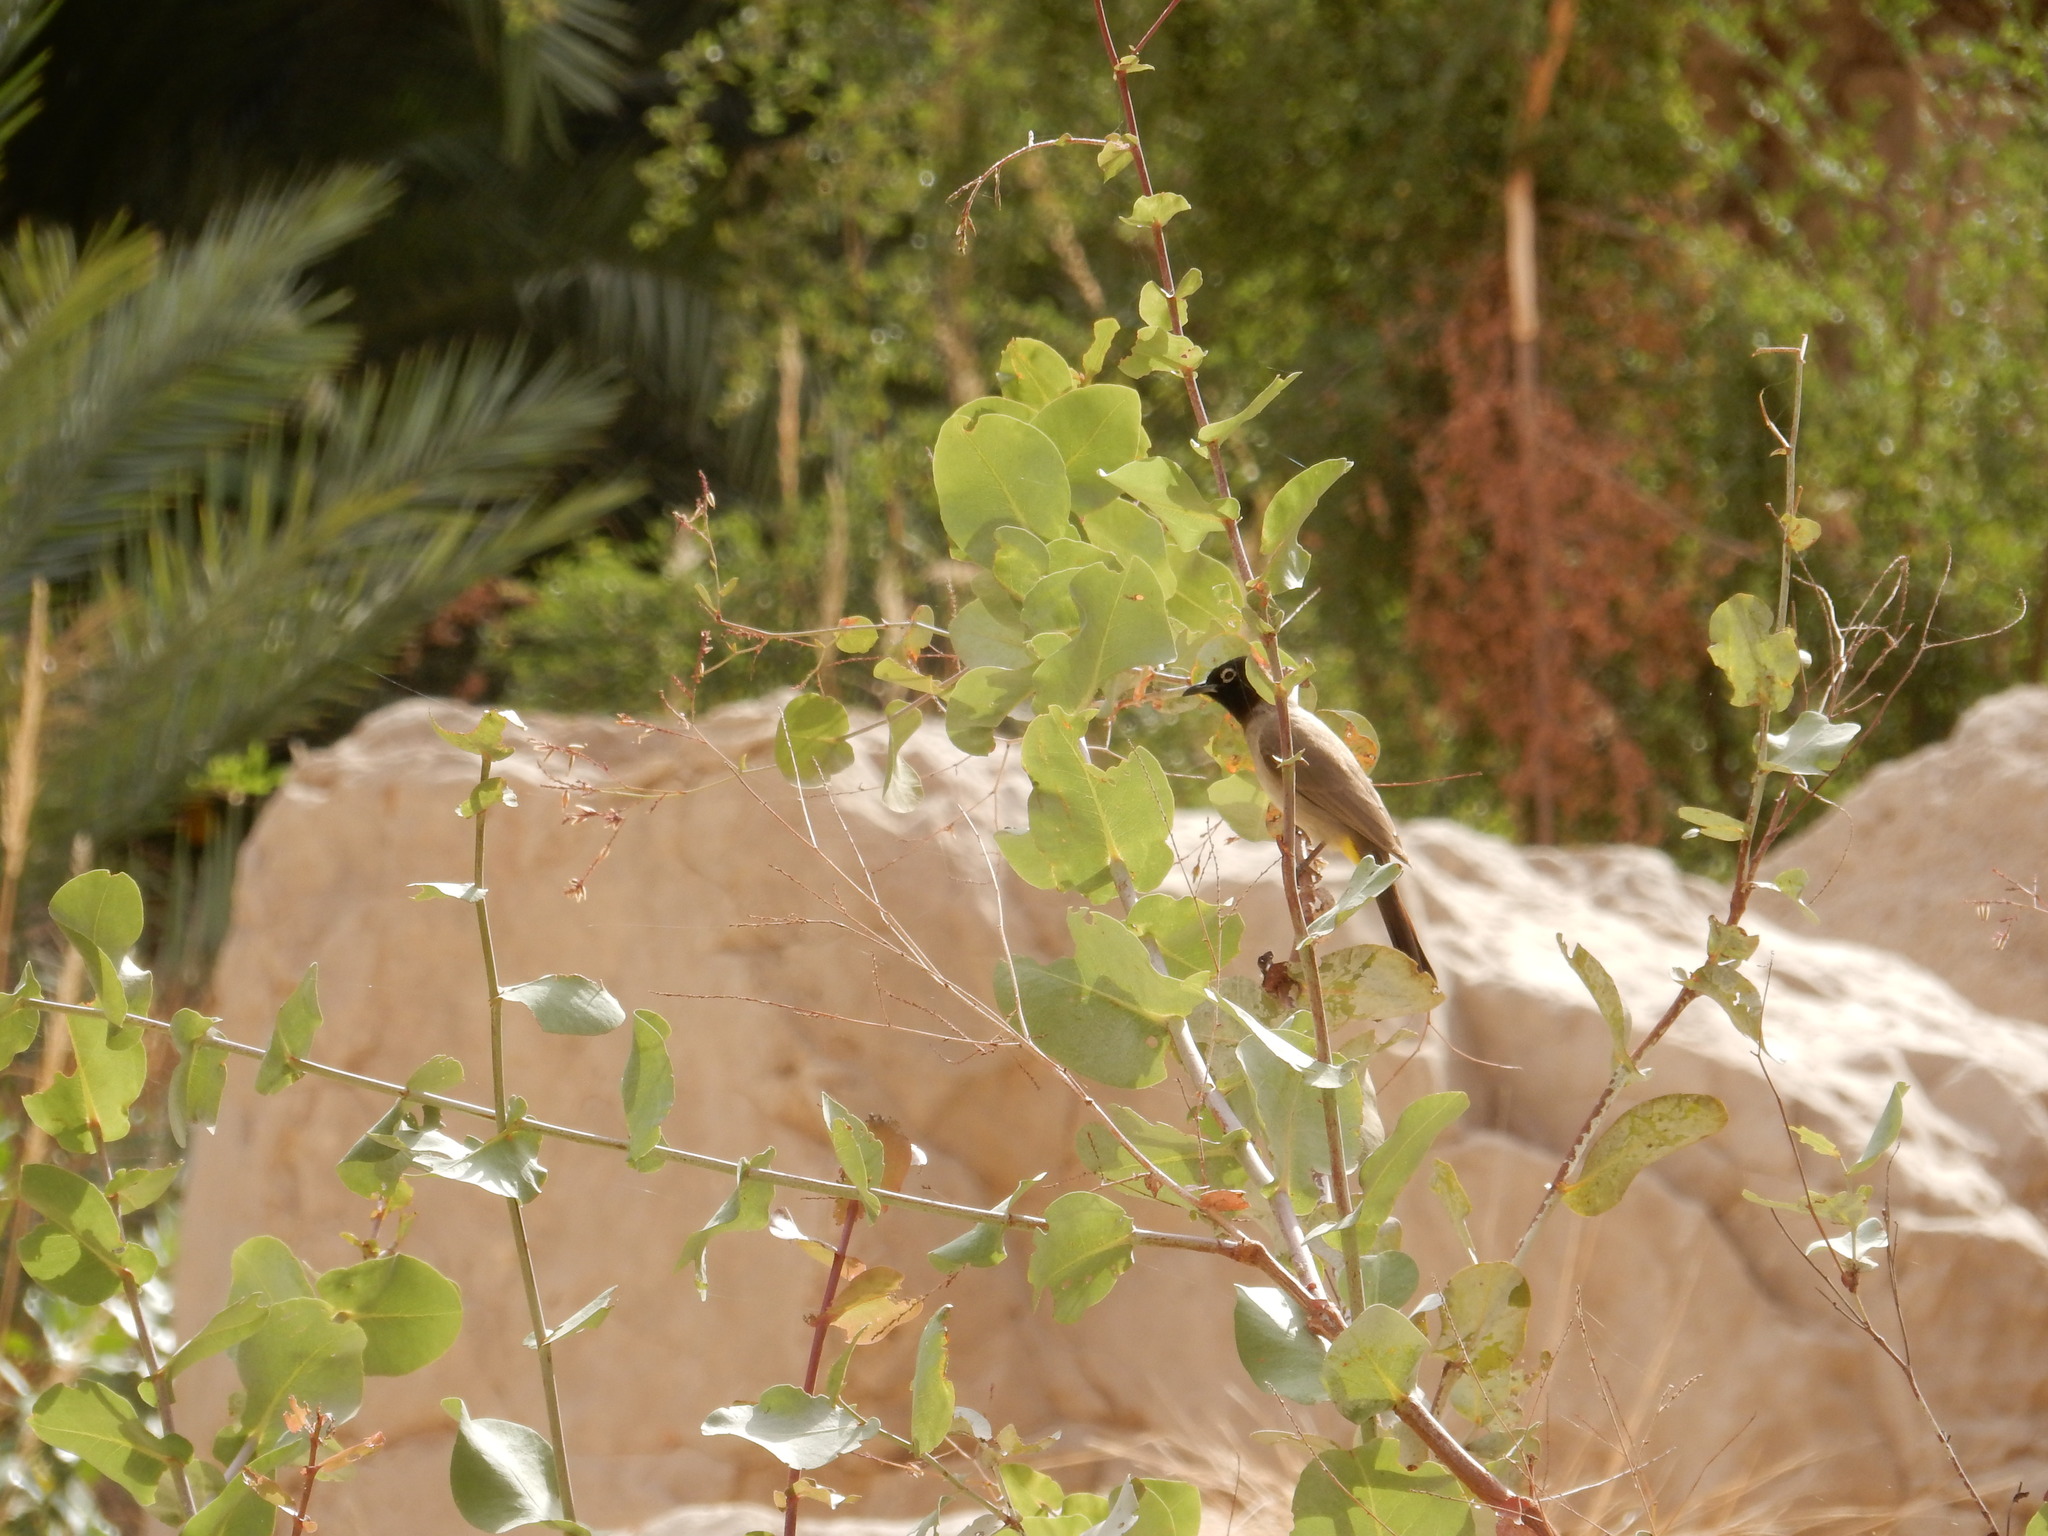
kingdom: Animalia
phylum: Chordata
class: Aves
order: Passeriformes
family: Pycnonotidae
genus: Pycnonotus
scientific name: Pycnonotus xanthopygos
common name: White-spectacled bulbul
